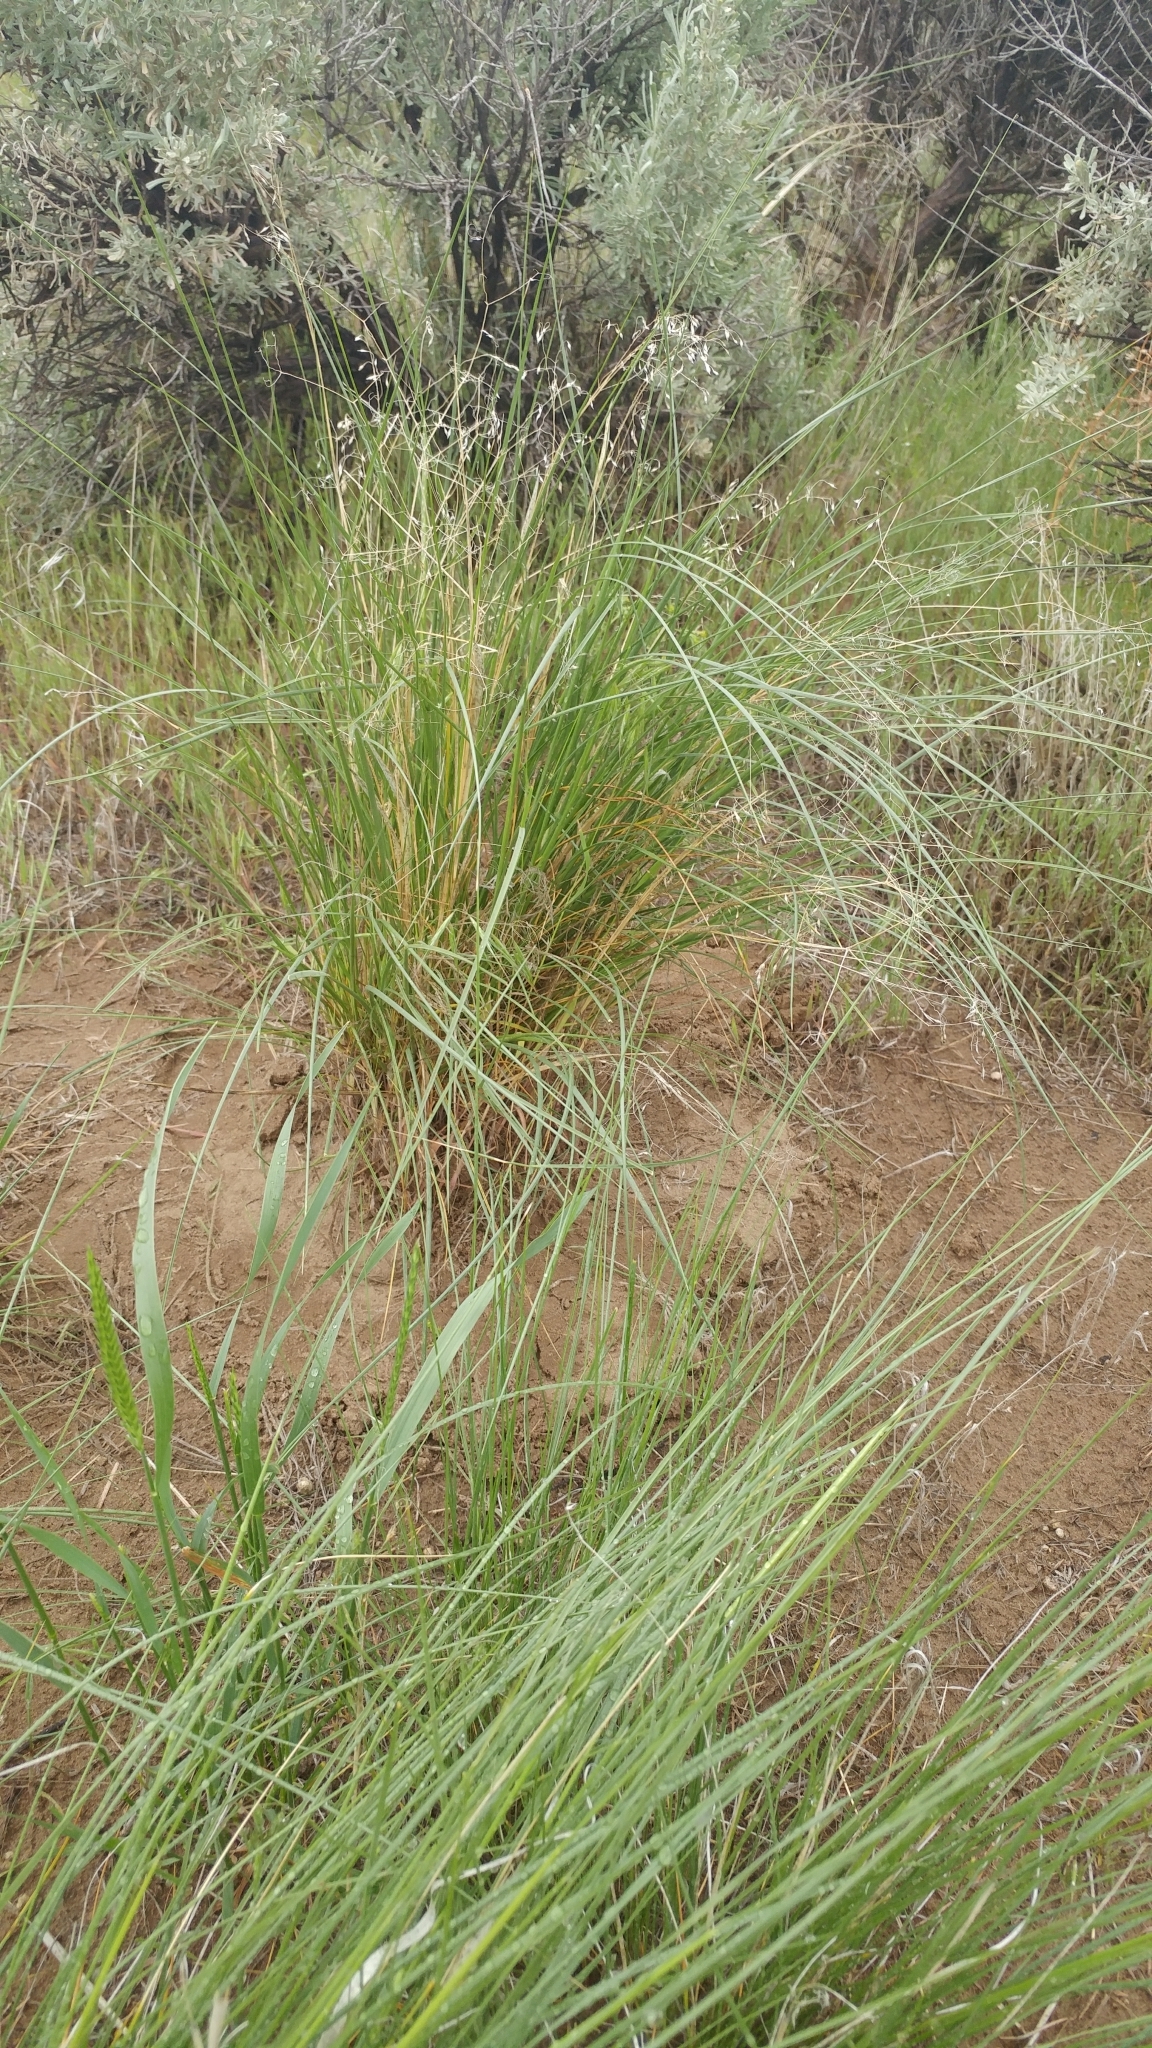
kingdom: Plantae
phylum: Tracheophyta
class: Liliopsida
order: Poales
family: Poaceae
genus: Eriocoma
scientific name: Eriocoma hymenoides
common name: Indian mountain ricegrass
